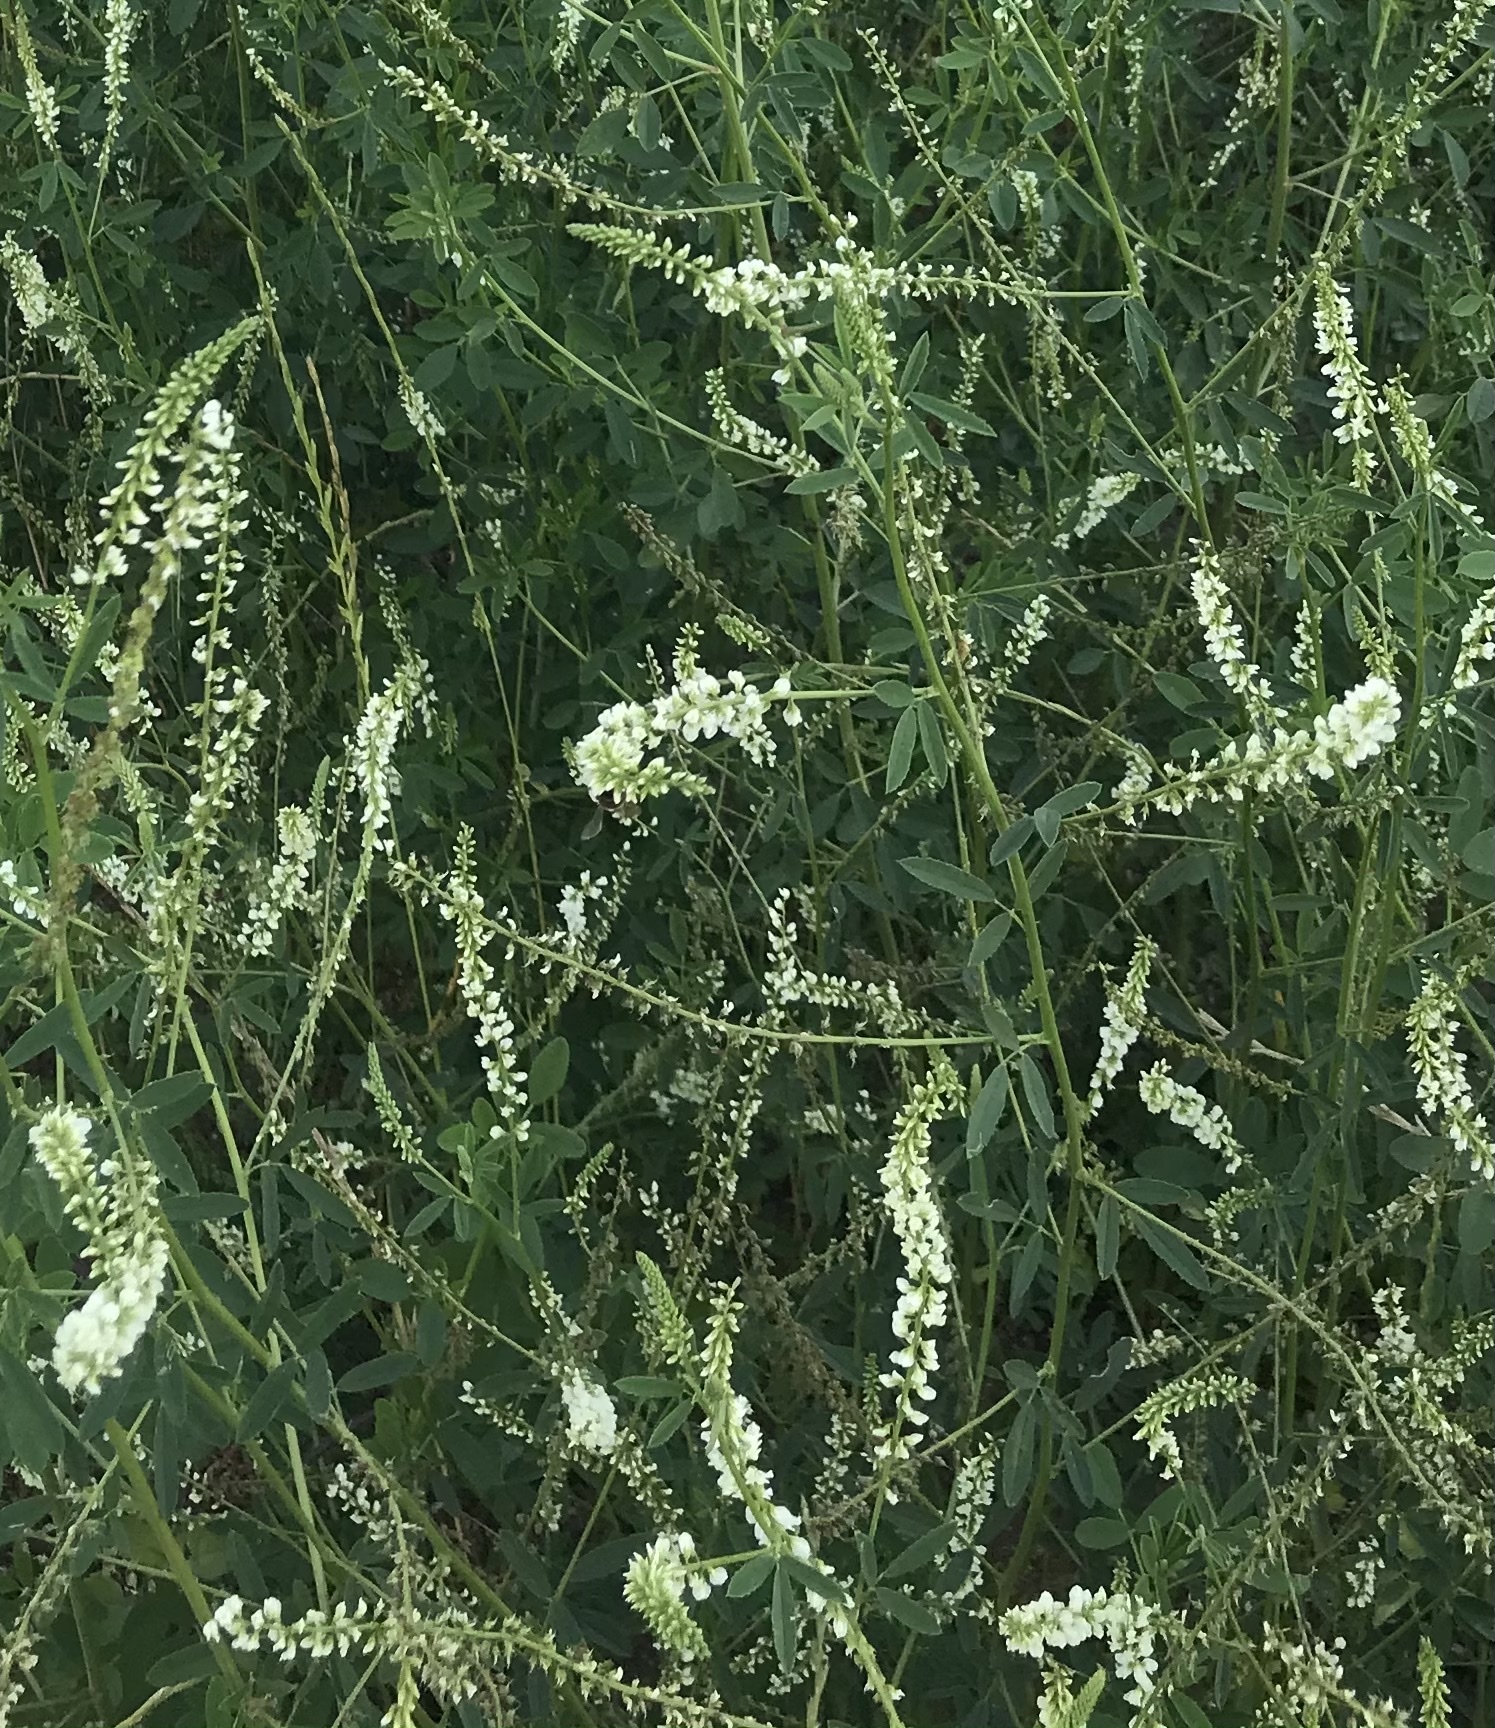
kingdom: Plantae
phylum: Tracheophyta
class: Magnoliopsida
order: Fabales
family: Fabaceae
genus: Melilotus
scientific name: Melilotus albus
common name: White melilot
